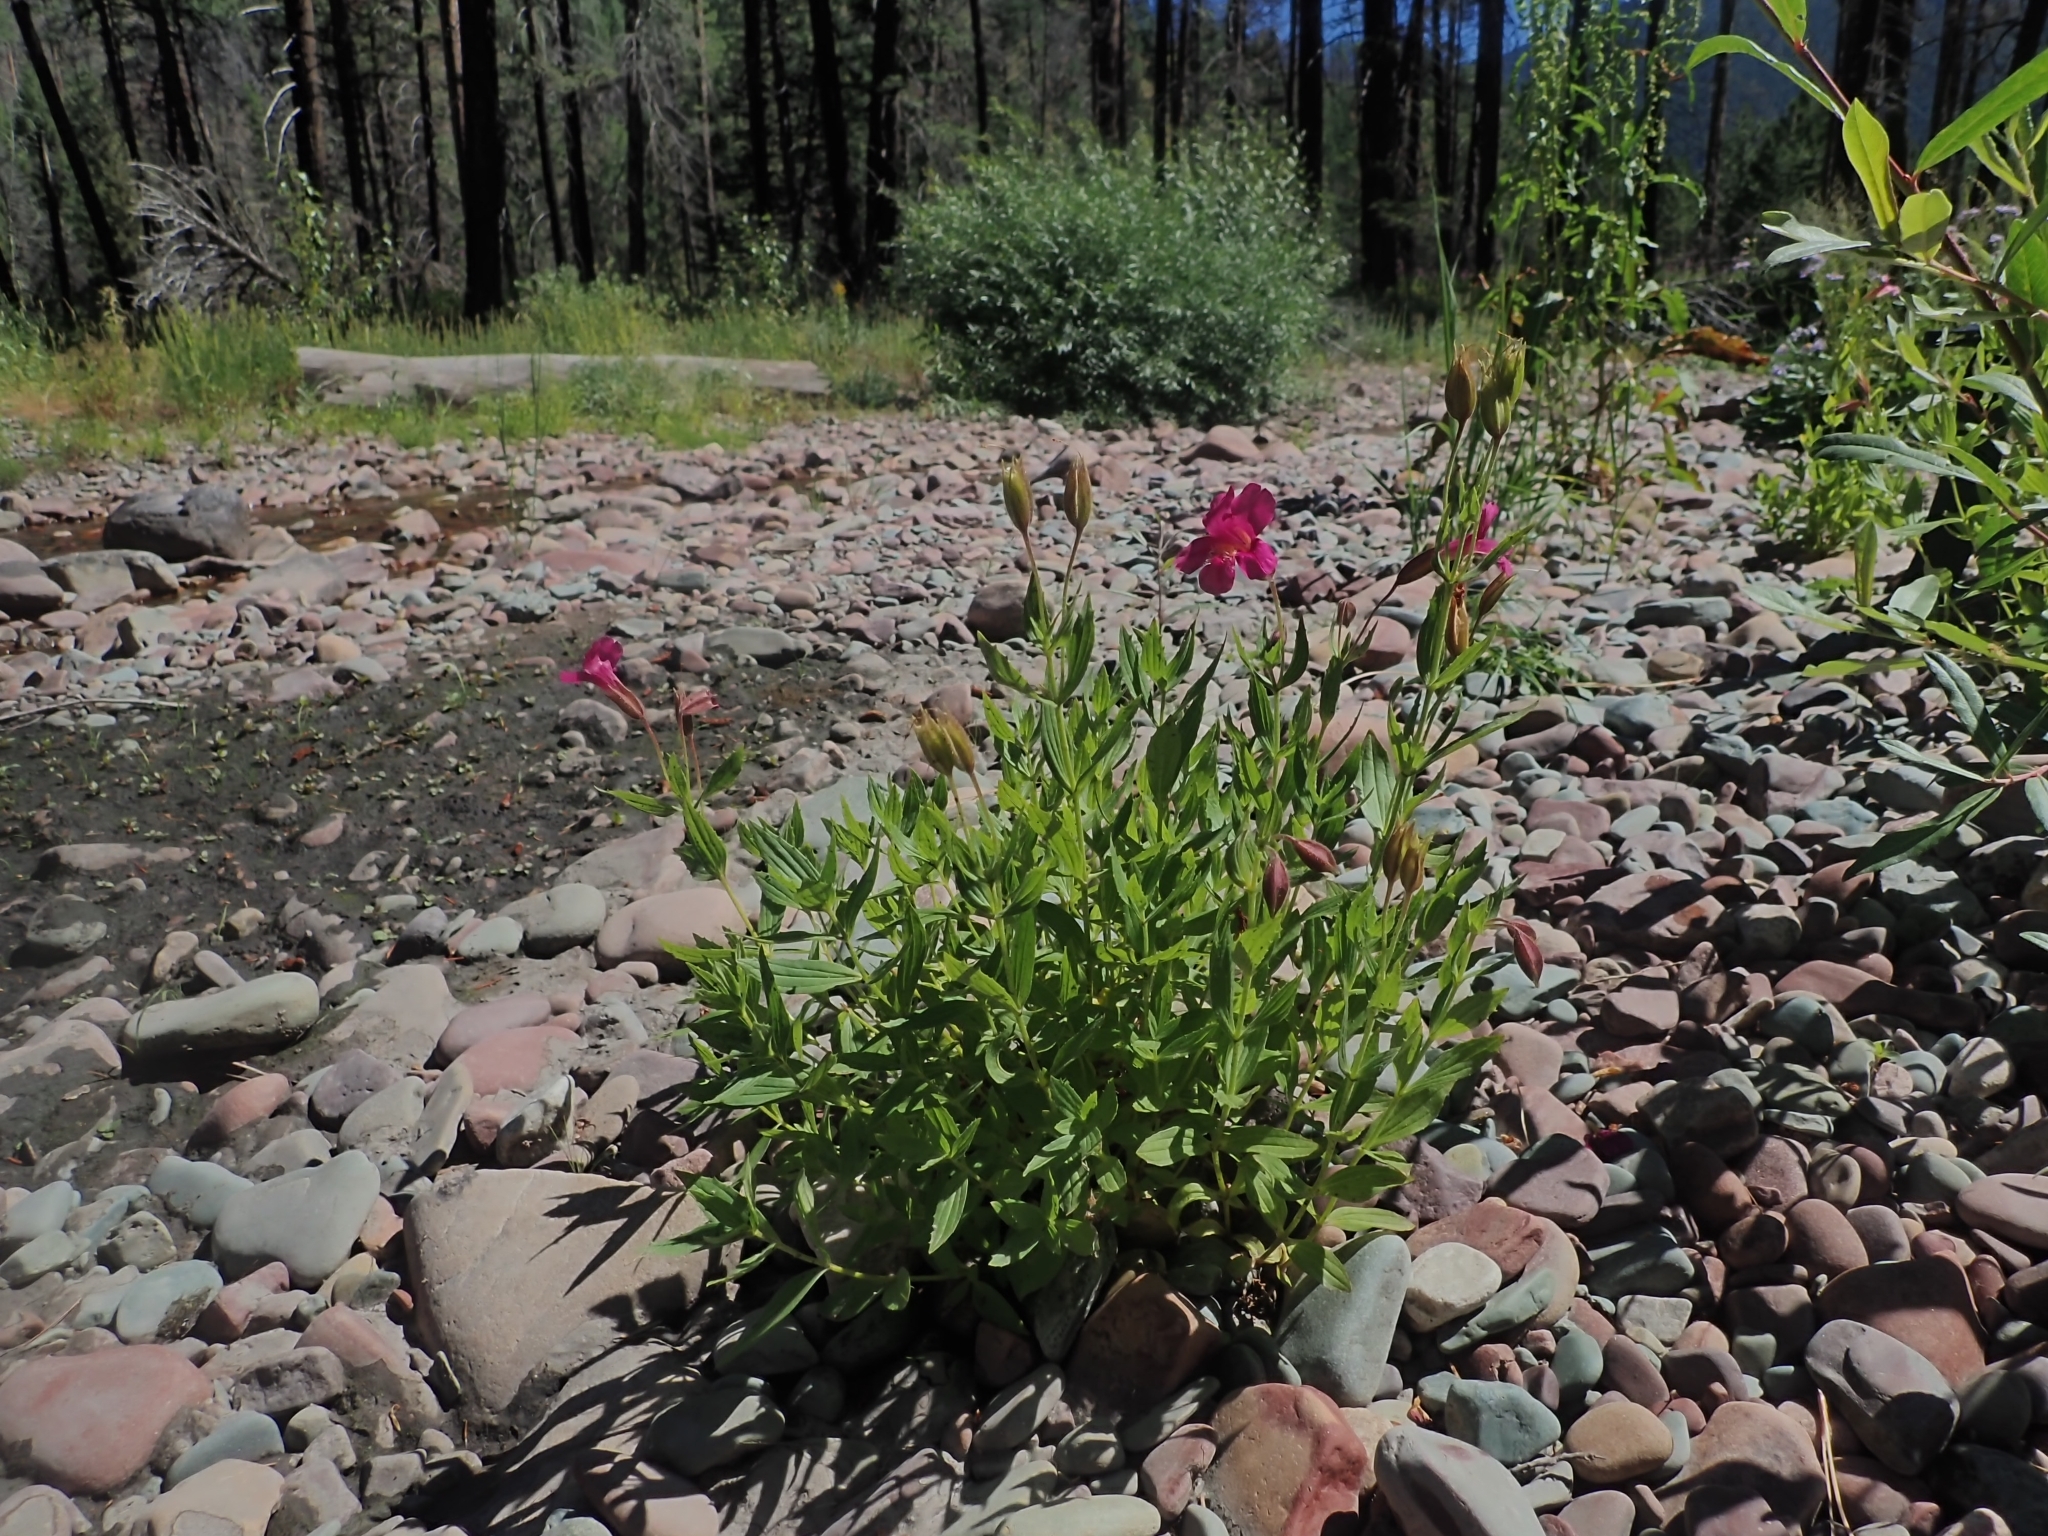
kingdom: Plantae
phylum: Tracheophyta
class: Magnoliopsida
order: Lamiales
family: Phrymaceae
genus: Erythranthe
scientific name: Erythranthe lewisii
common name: Lewis's monkey-flower
